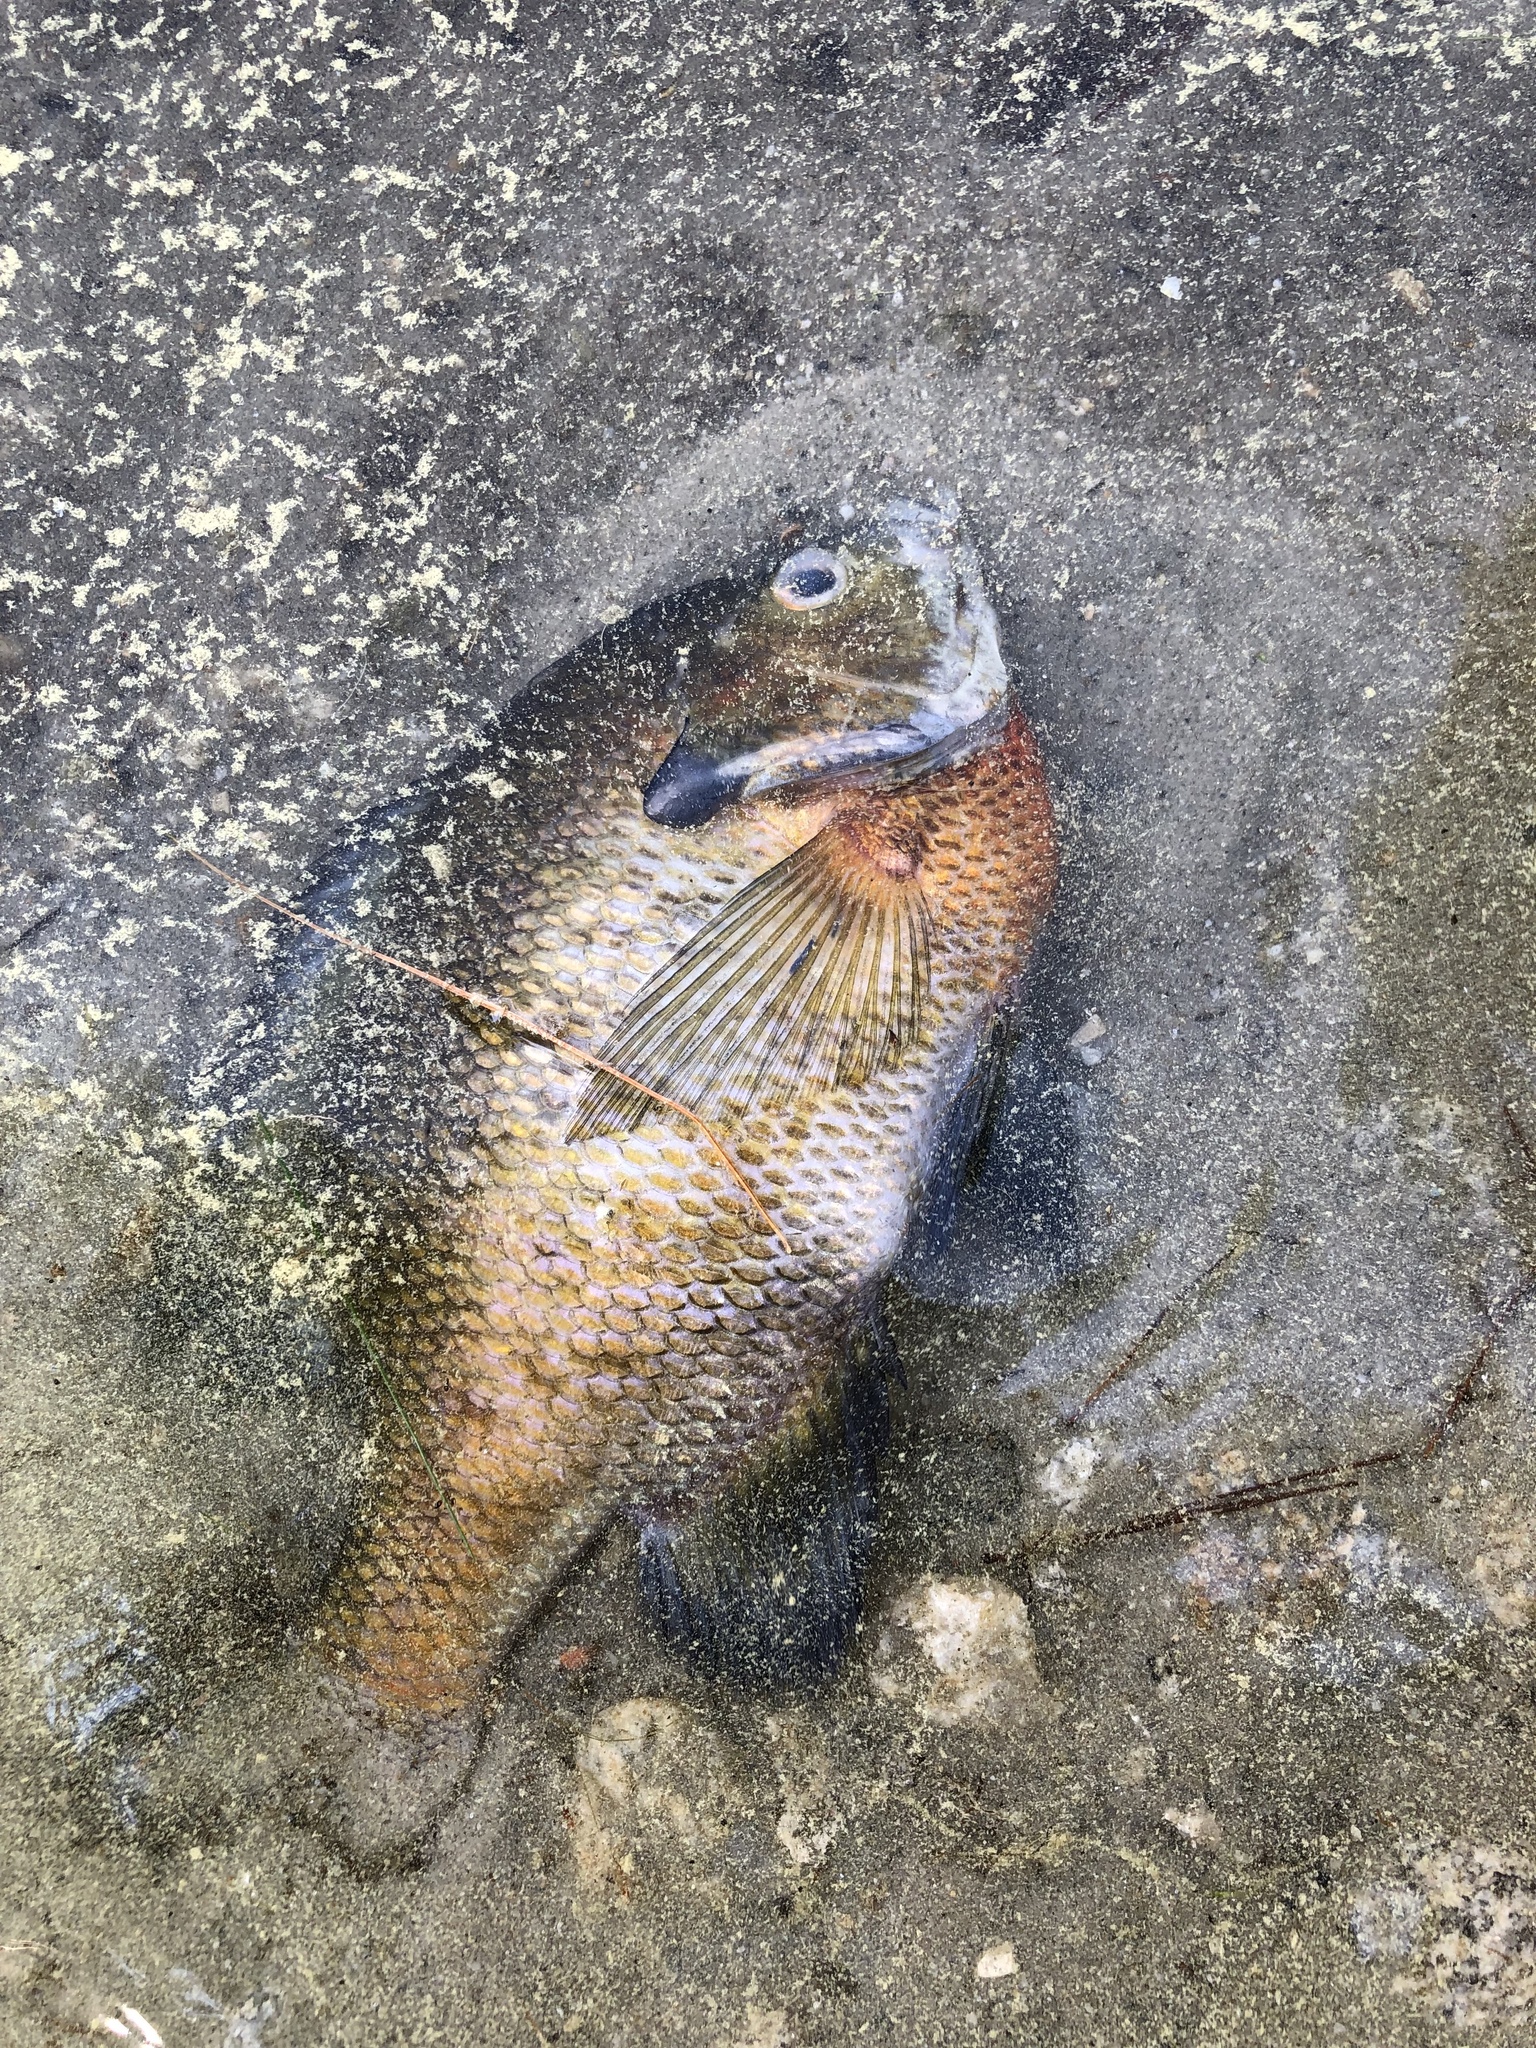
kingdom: Animalia
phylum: Chordata
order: Perciformes
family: Centrarchidae
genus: Lepomis
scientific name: Lepomis macrochirus
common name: Bluegill
